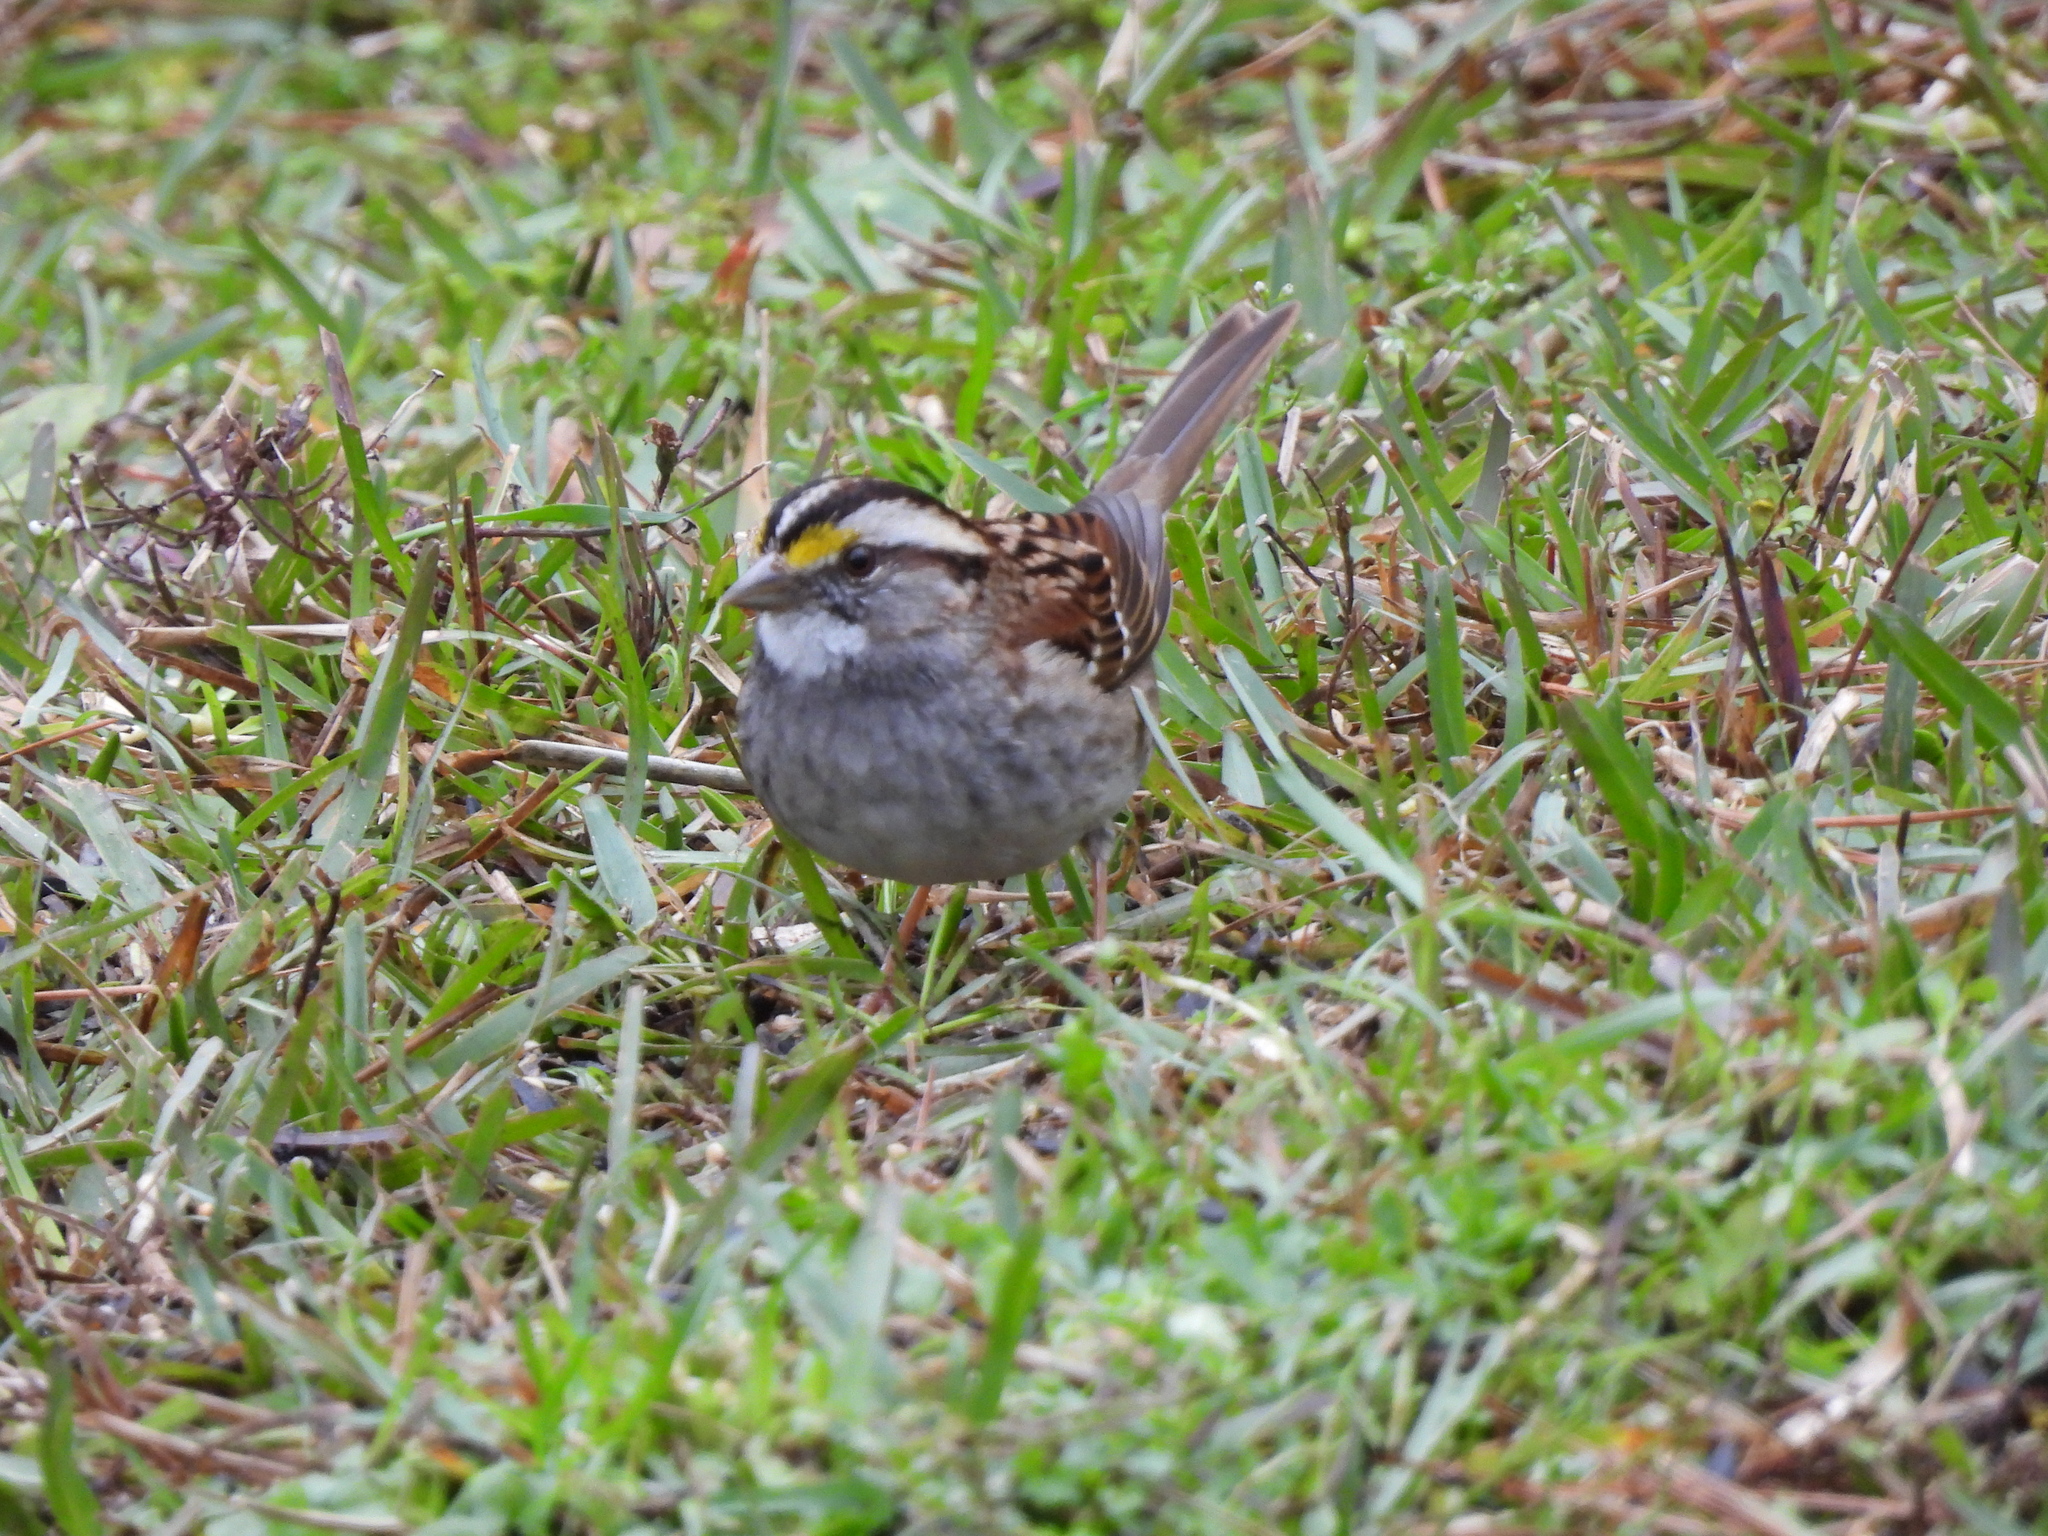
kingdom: Animalia
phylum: Chordata
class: Aves
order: Passeriformes
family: Passerellidae
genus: Zonotrichia
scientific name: Zonotrichia albicollis
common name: White-throated sparrow
